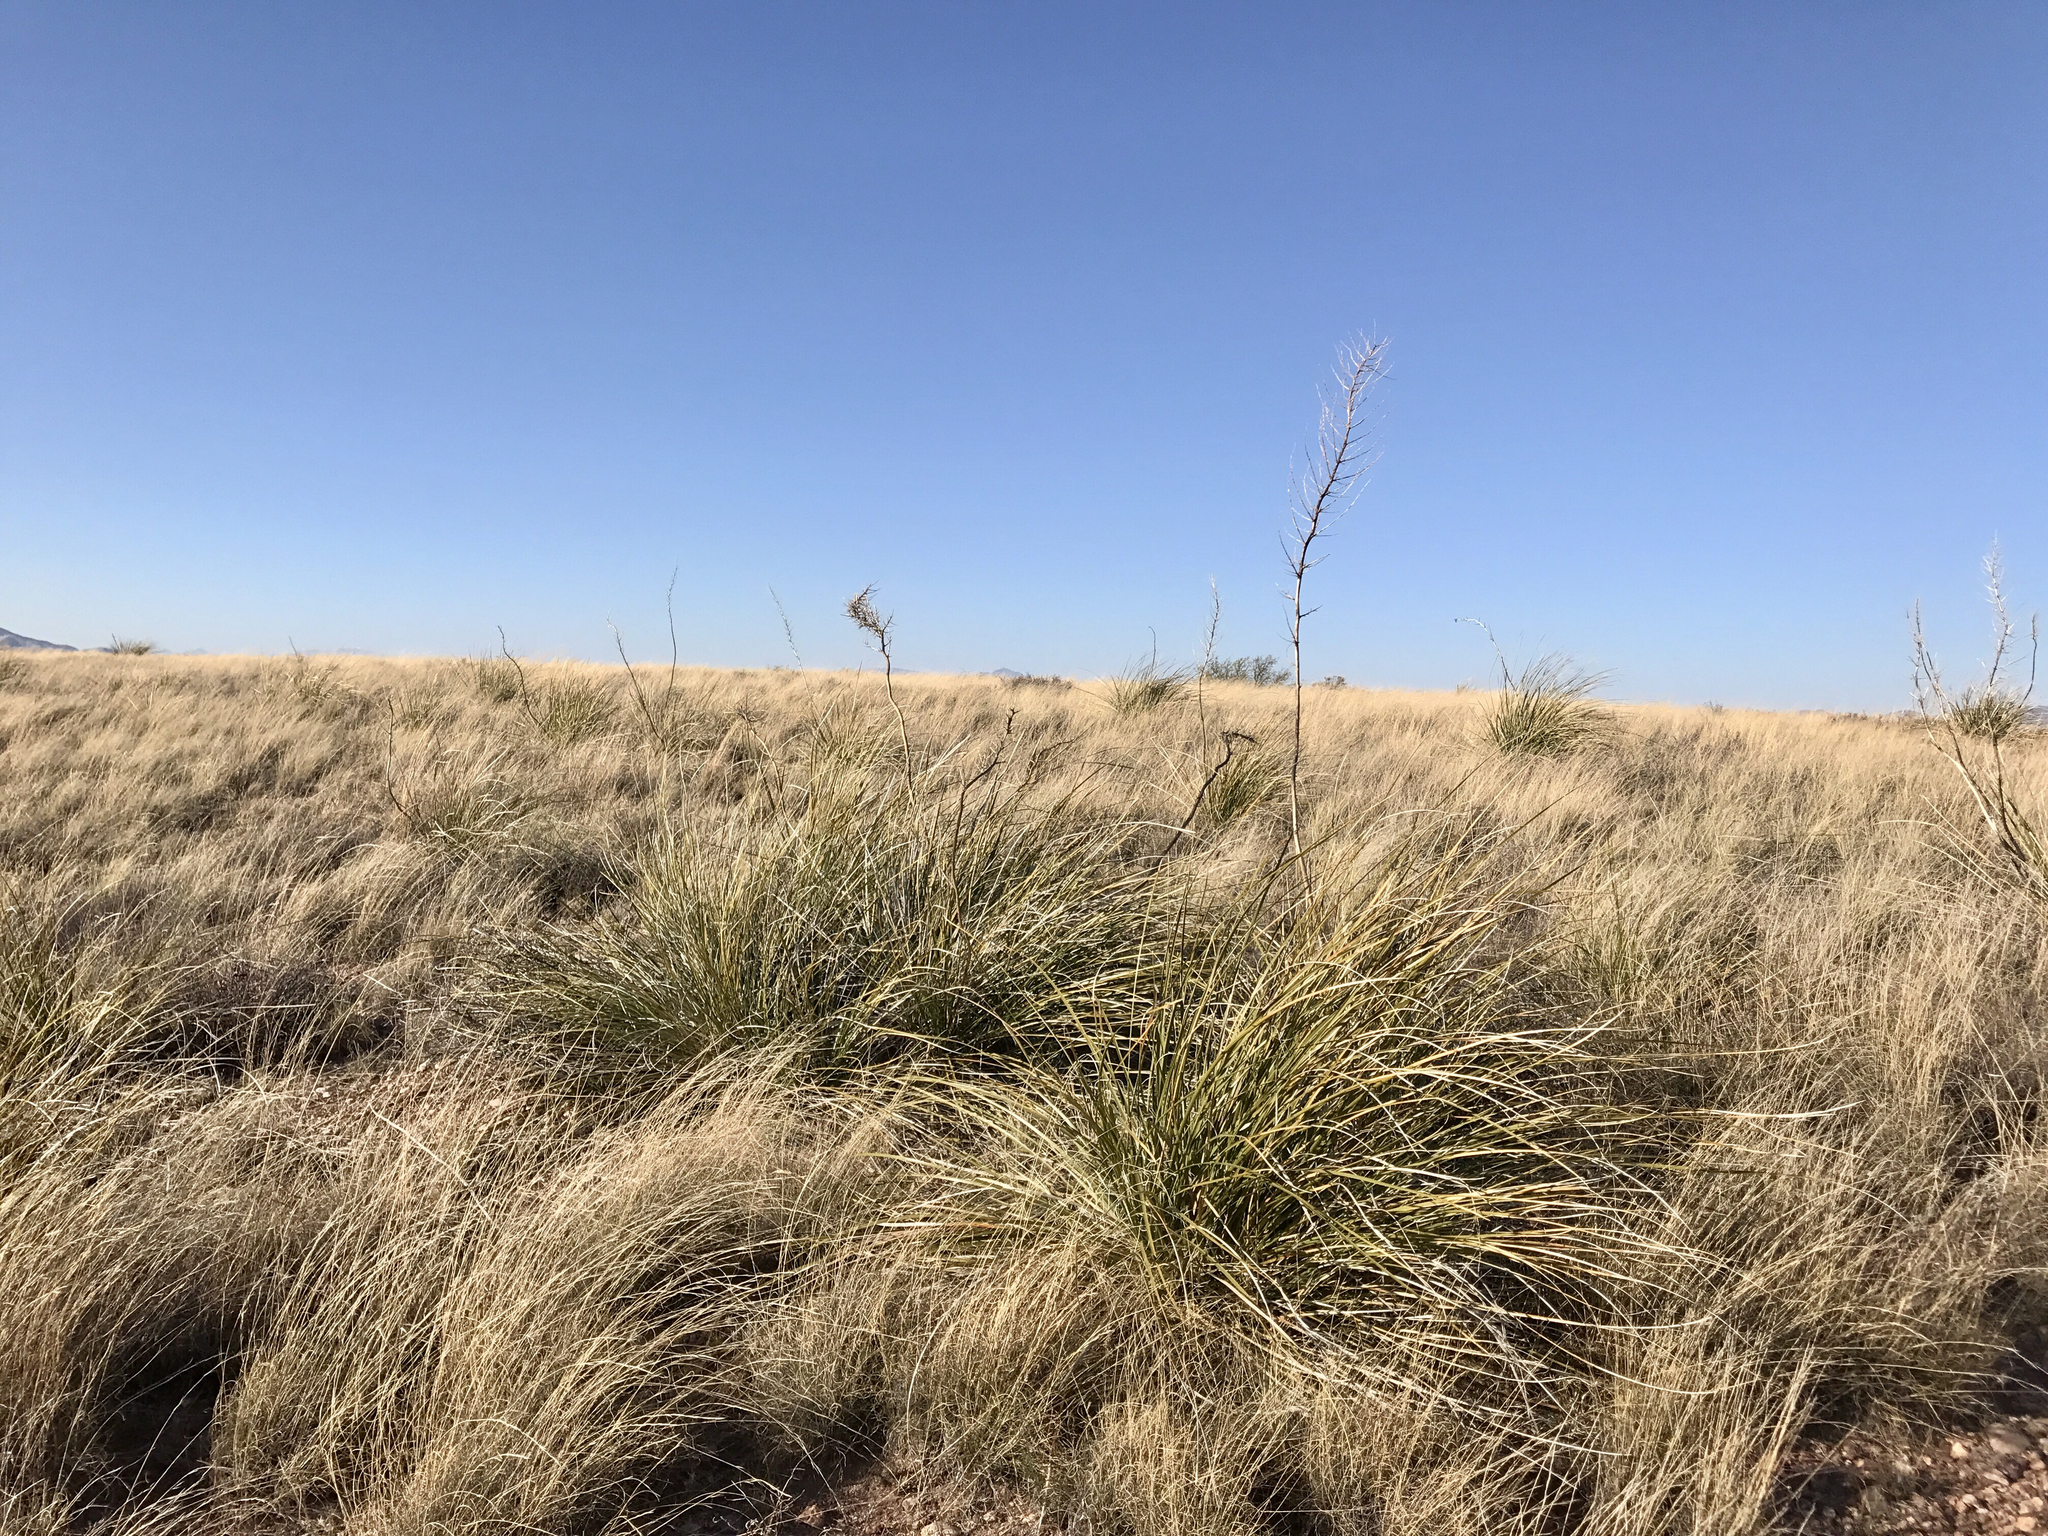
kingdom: Plantae
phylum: Tracheophyta
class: Liliopsida
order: Asparagales
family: Asparagaceae
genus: Nolina
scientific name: Nolina microcarpa
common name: Bear-grass
